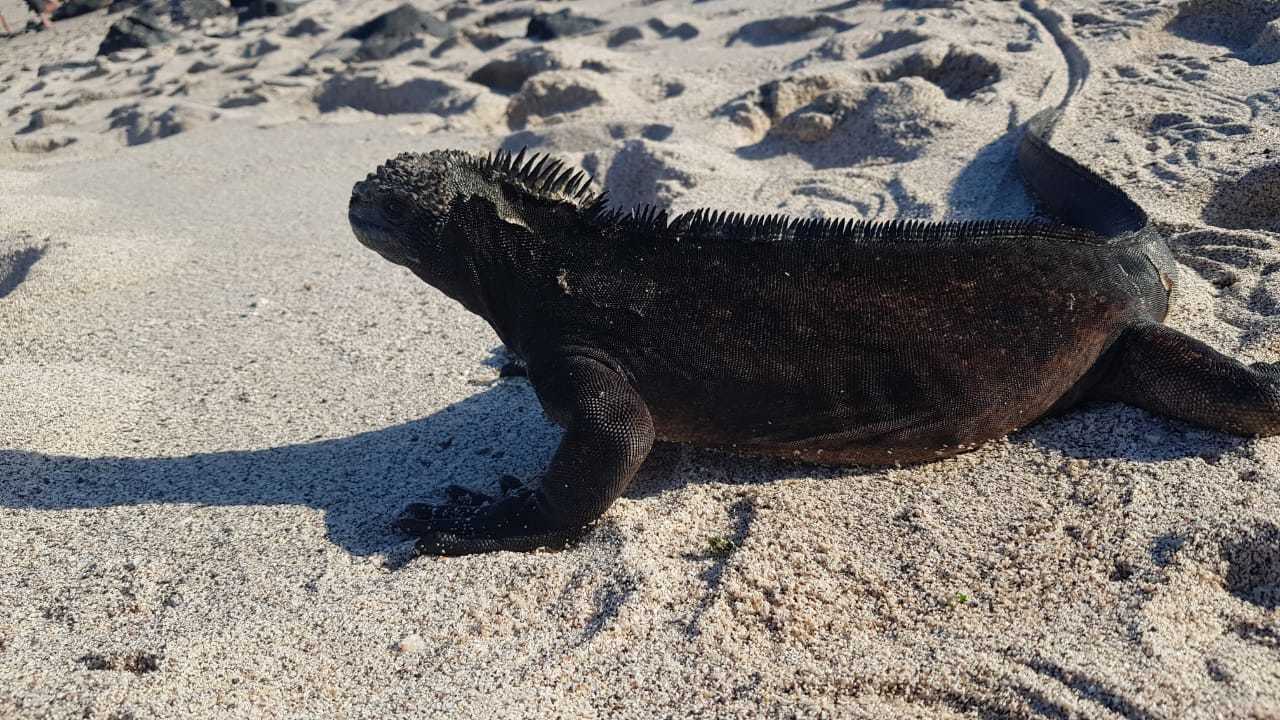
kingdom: Animalia
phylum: Chordata
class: Squamata
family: Iguanidae
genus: Amblyrhynchus
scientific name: Amblyrhynchus cristatus
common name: Marine iguana
